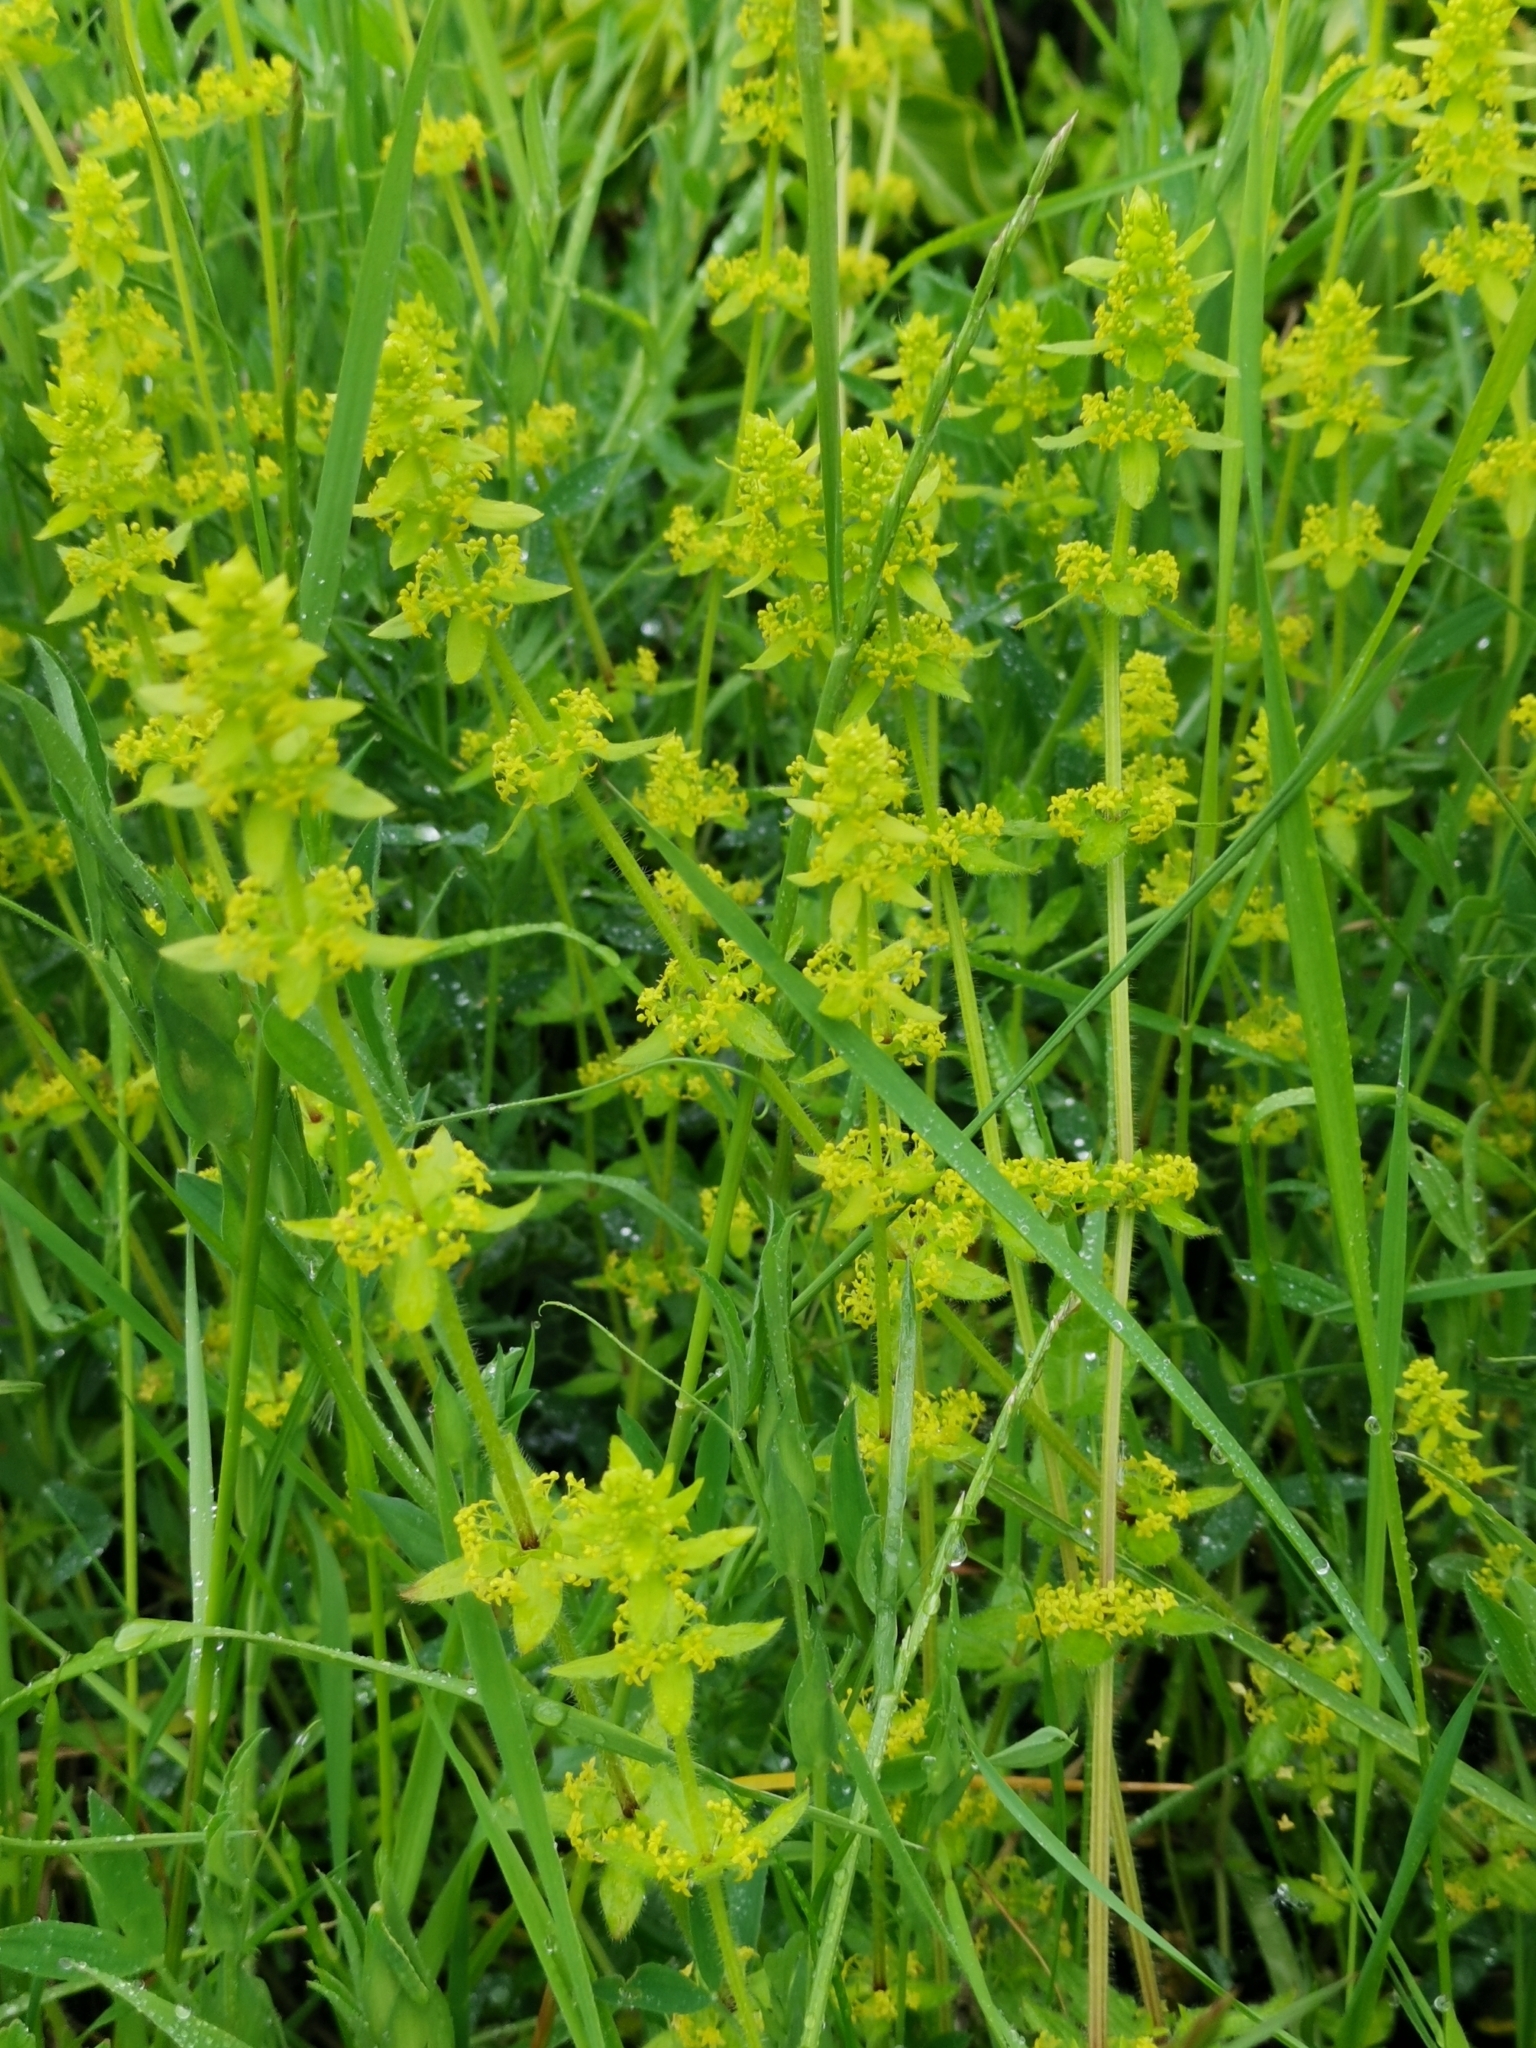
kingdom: Plantae
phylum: Tracheophyta
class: Magnoliopsida
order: Gentianales
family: Rubiaceae
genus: Cruciata
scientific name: Cruciata laevipes
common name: Crosswort
